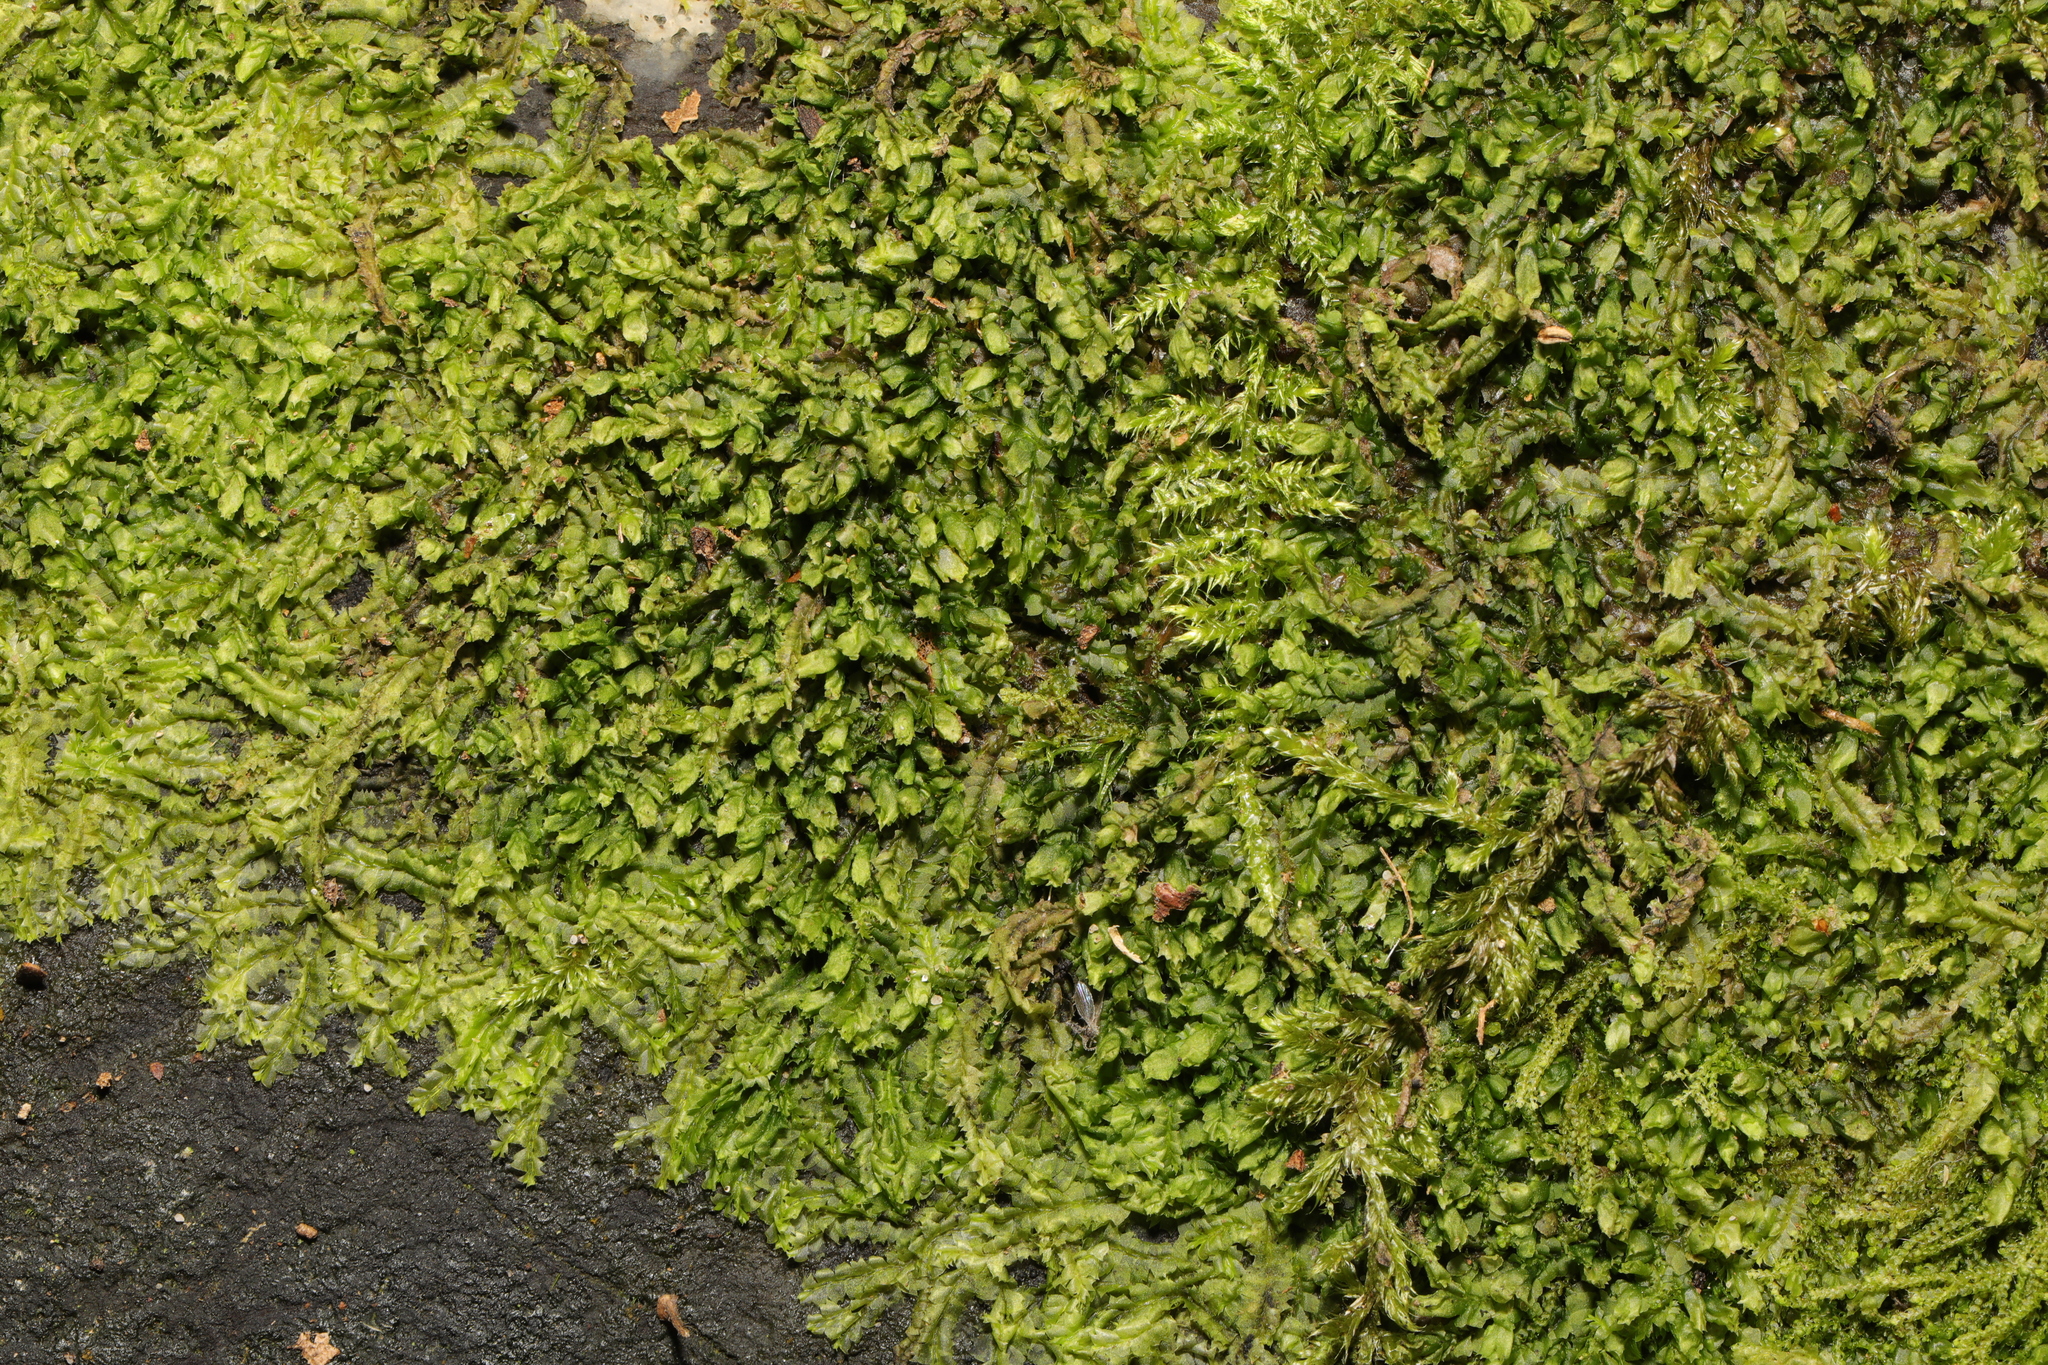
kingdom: Plantae
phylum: Marchantiophyta
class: Jungermanniopsida
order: Jungermanniales
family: Lophocoleaceae
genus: Lophocolea
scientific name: Lophocolea heterophylla
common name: Variable-leaved crestwort
